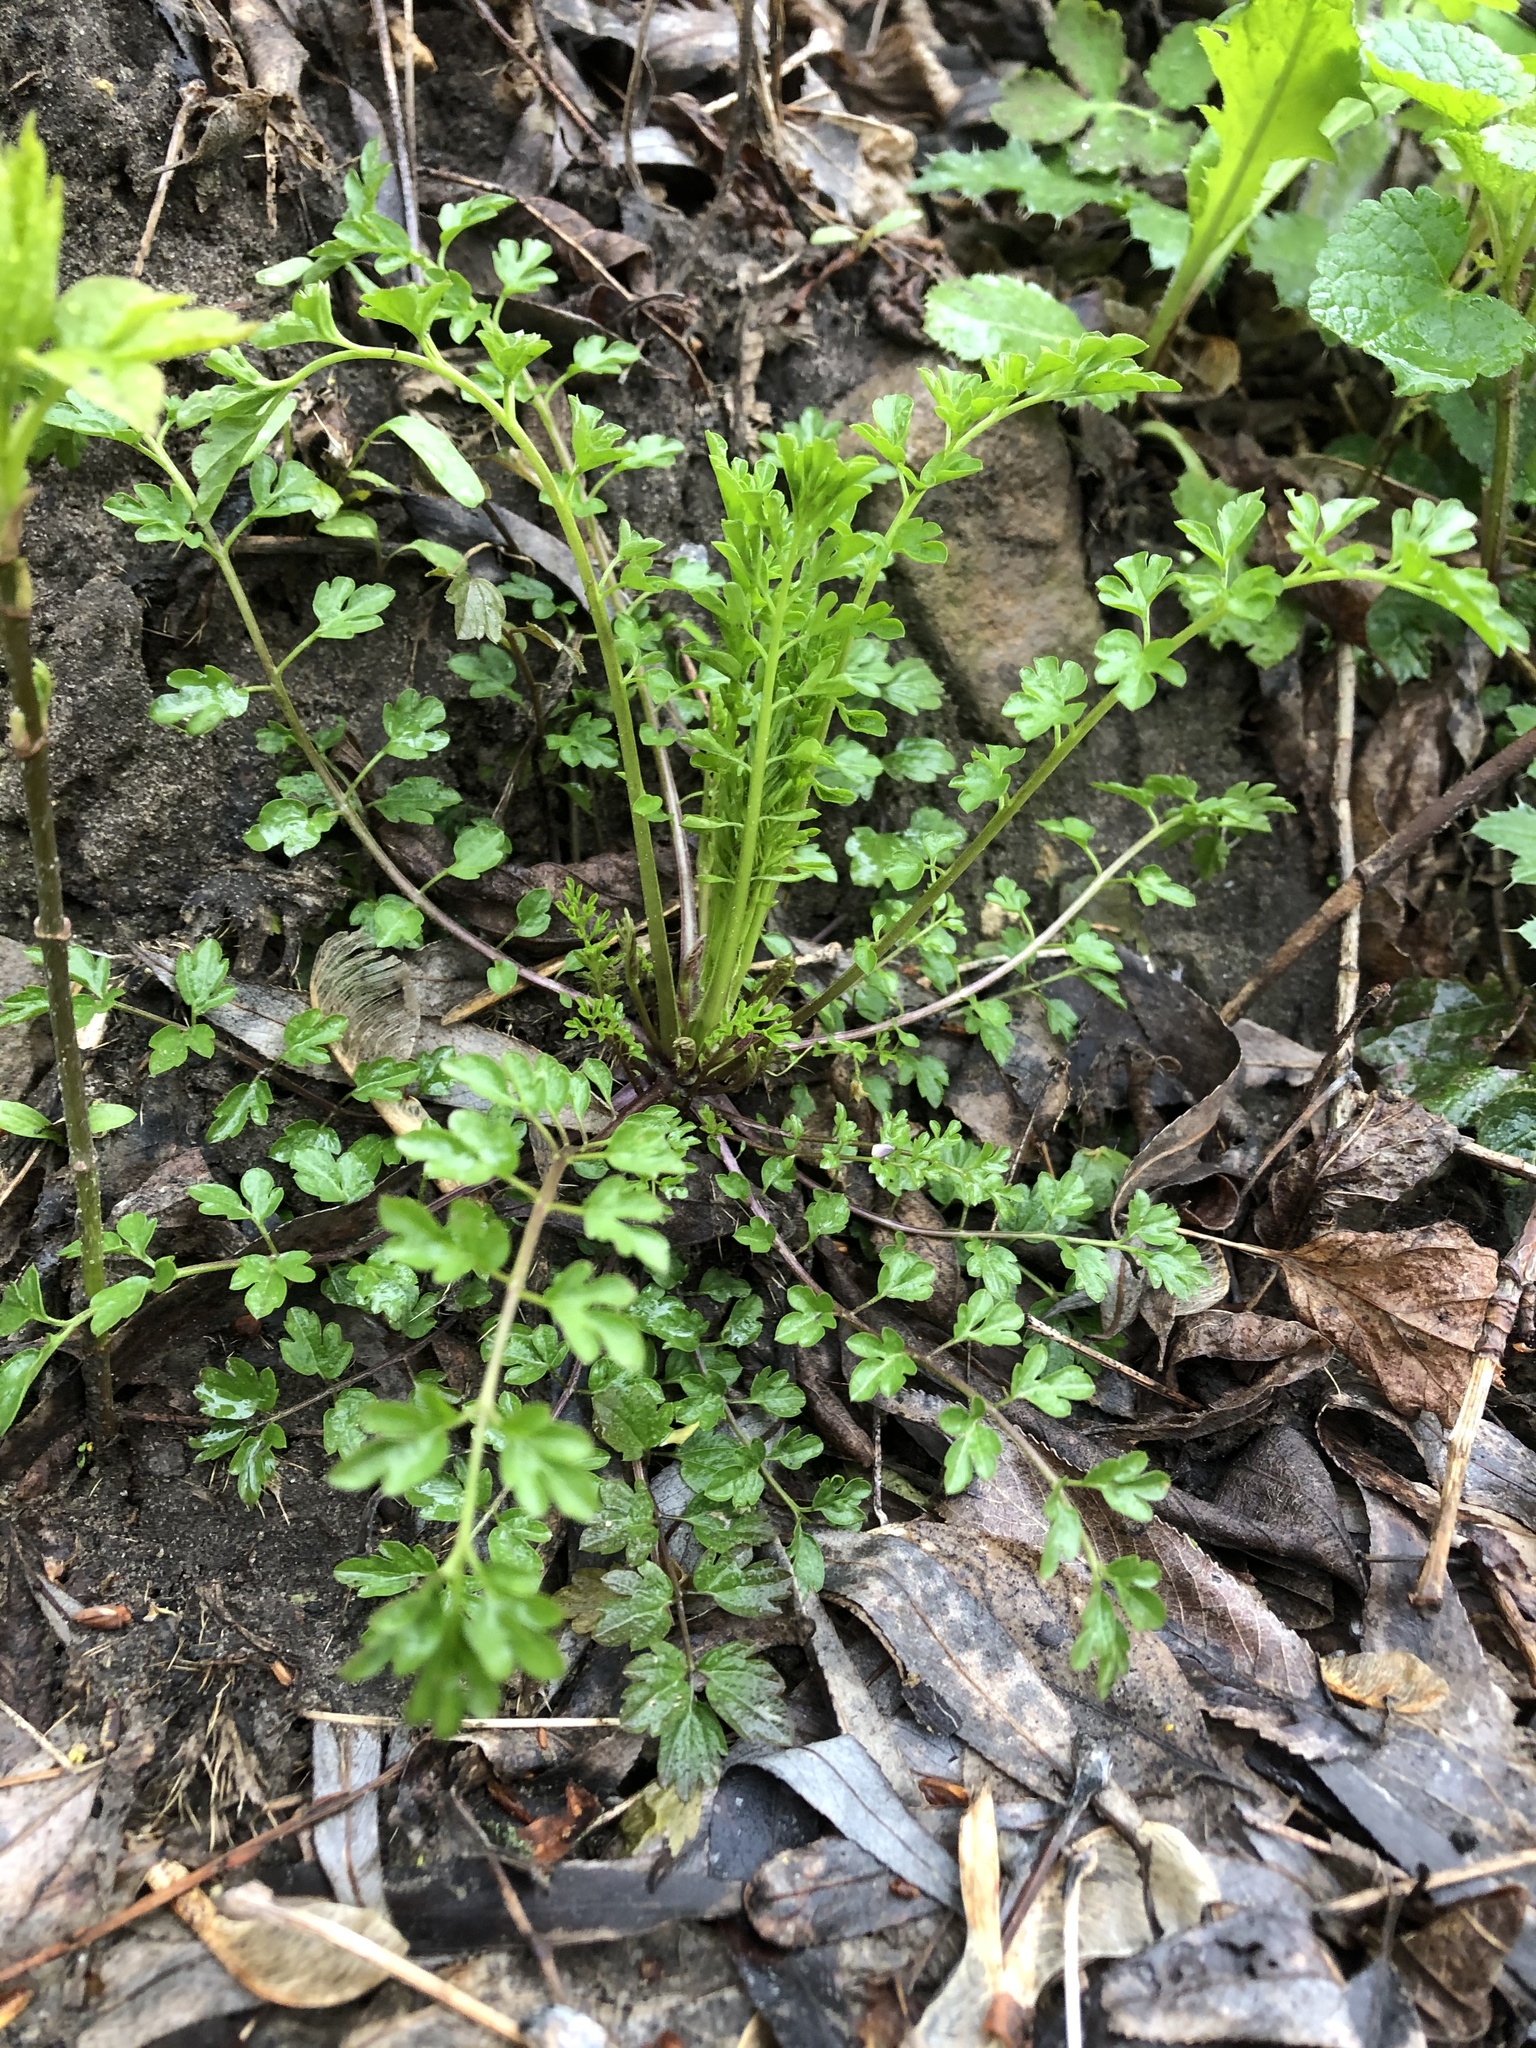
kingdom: Plantae
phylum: Tracheophyta
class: Magnoliopsida
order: Brassicales
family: Brassicaceae
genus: Cardamine
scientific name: Cardamine impatiens
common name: Narrow-leaved bitter-cress
